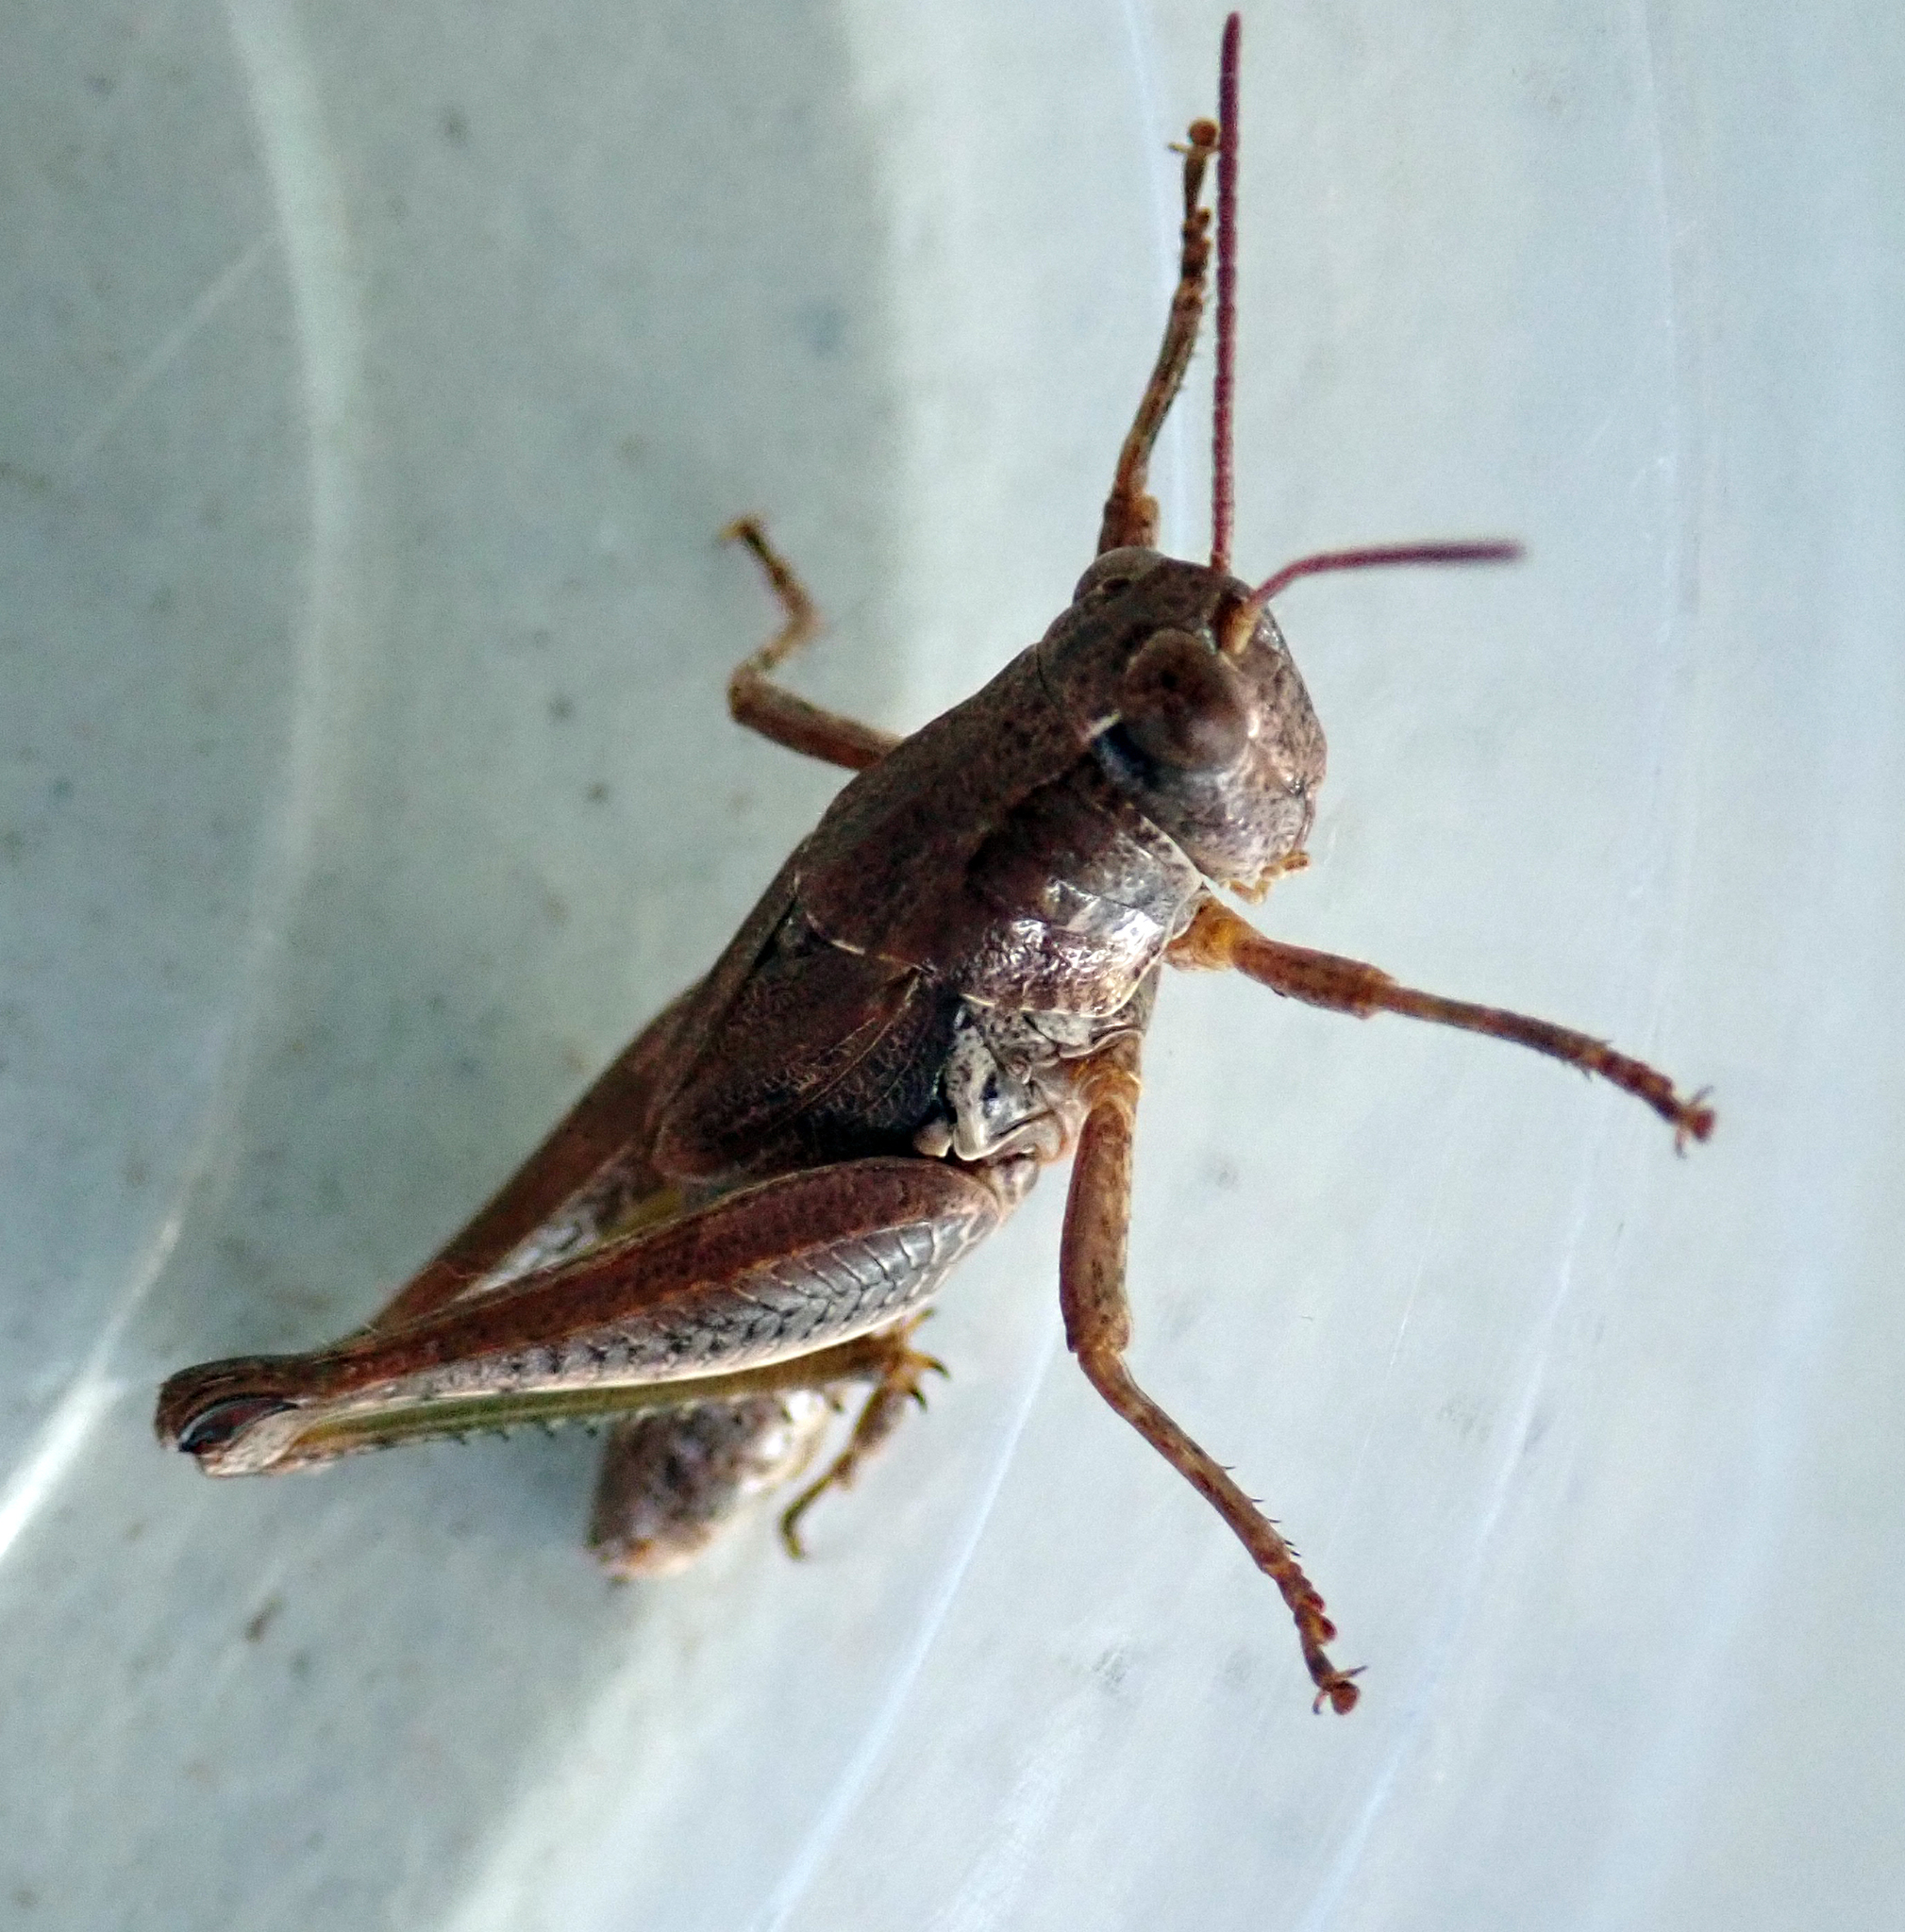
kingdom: Animalia
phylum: Arthropoda
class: Insecta
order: Orthoptera
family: Acrididae
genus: Phaulacridium
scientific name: Phaulacridium marginale
